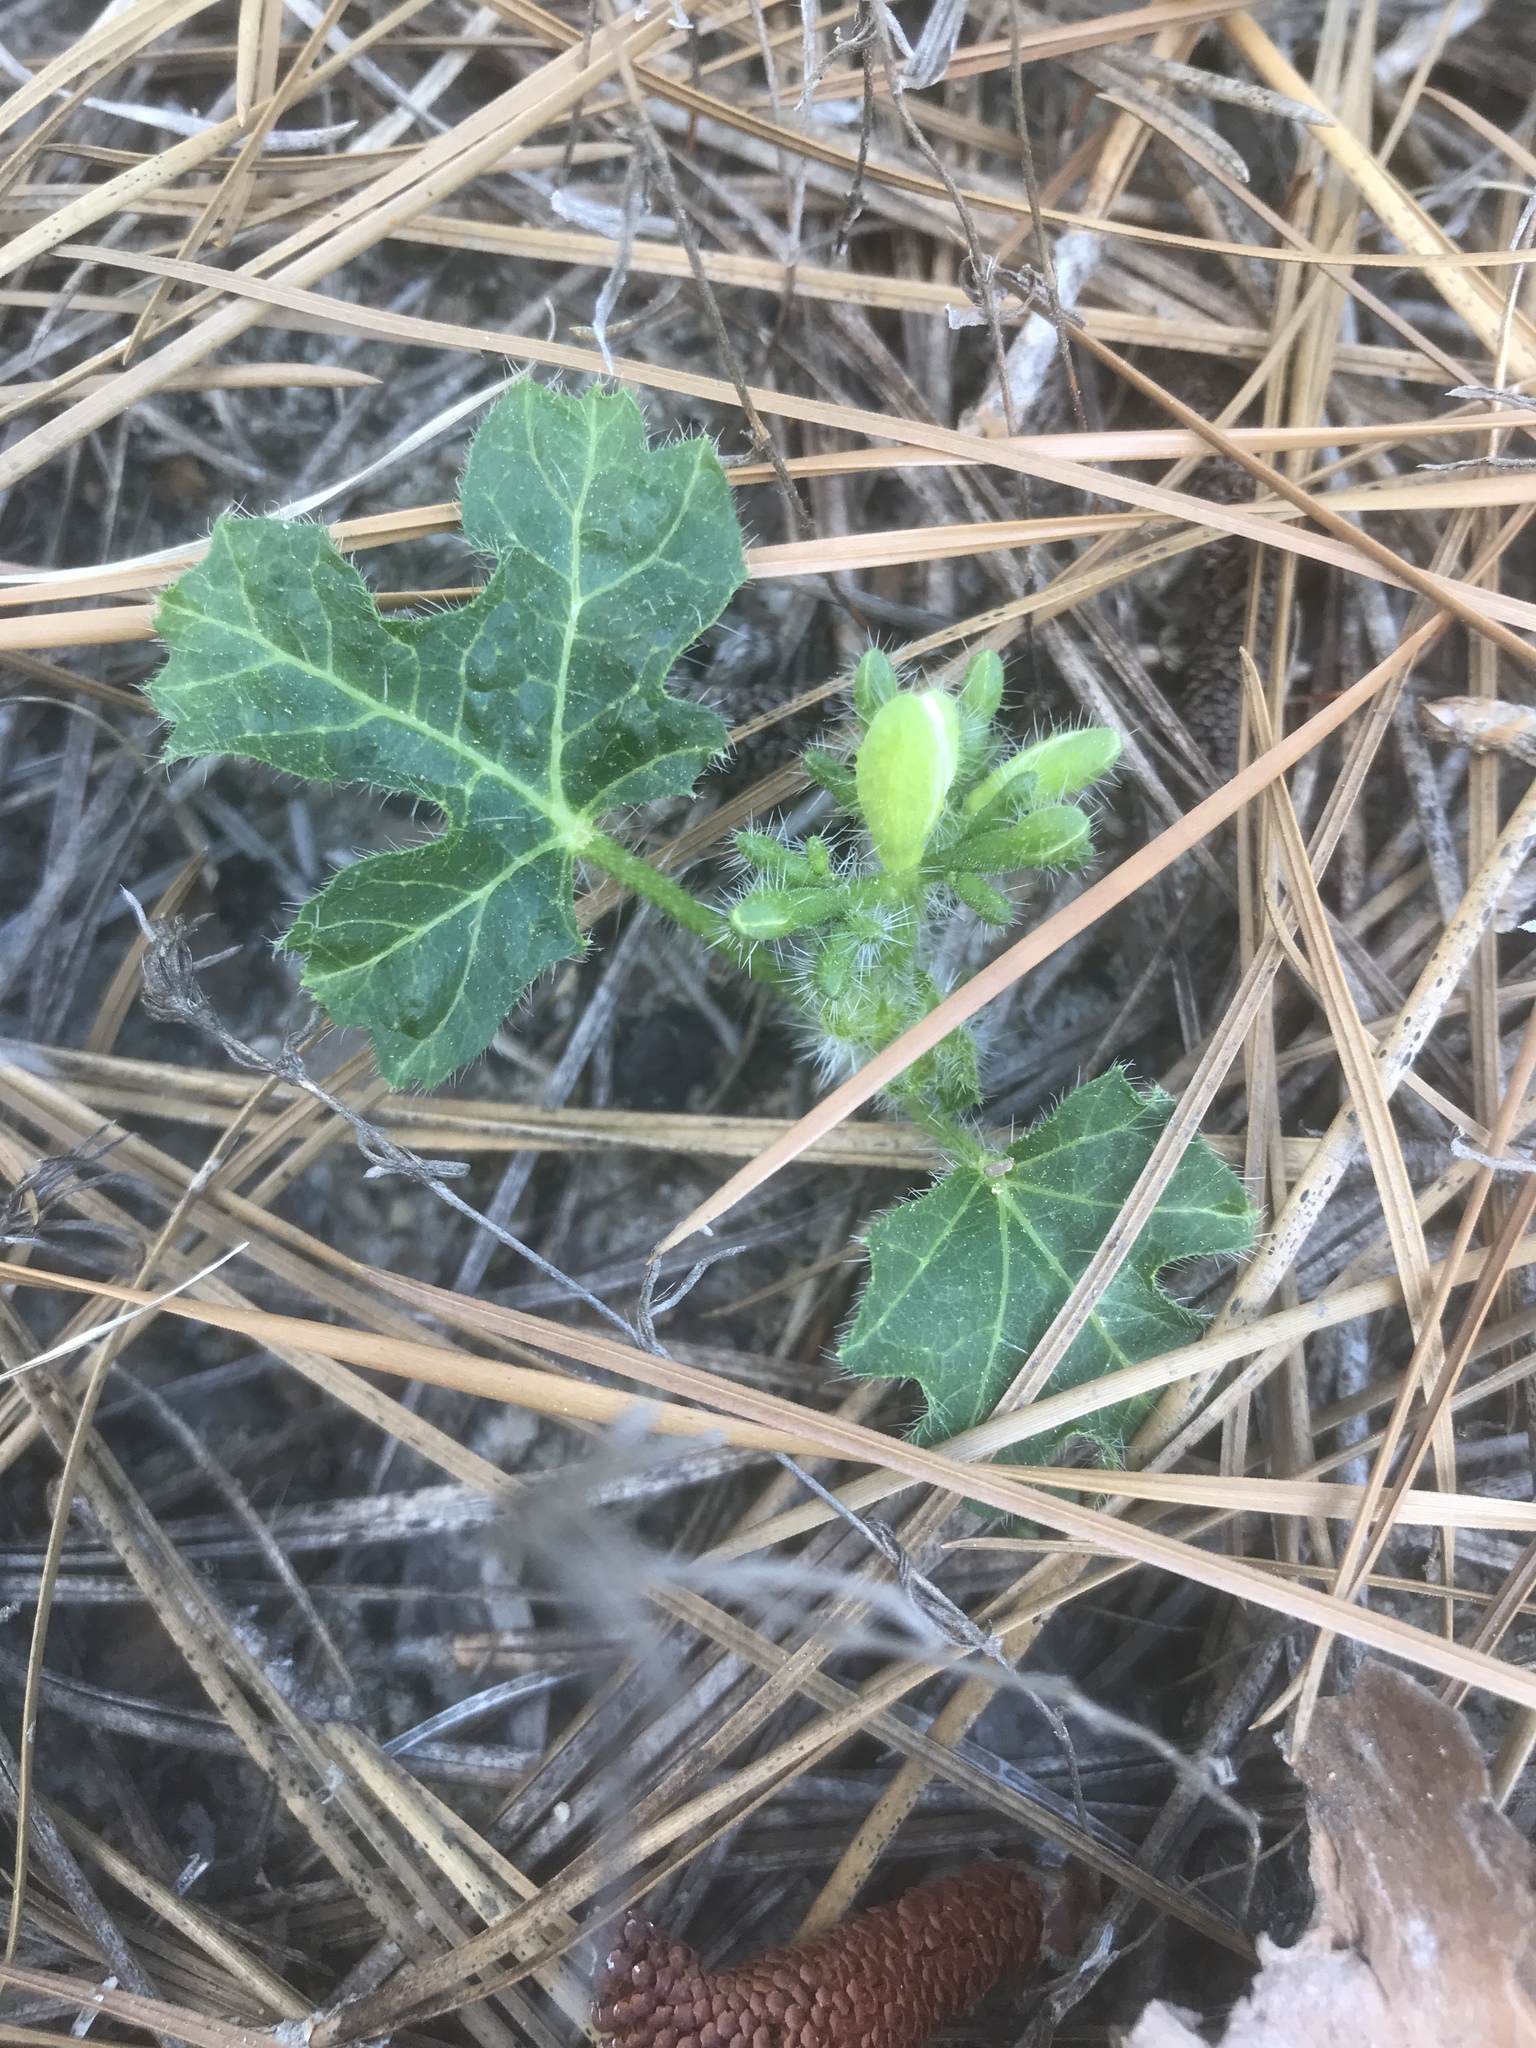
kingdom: Plantae
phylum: Tracheophyta
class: Magnoliopsida
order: Malpighiales
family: Euphorbiaceae
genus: Cnidoscolus
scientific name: Cnidoscolus stimulosus
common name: Bull-nettle
